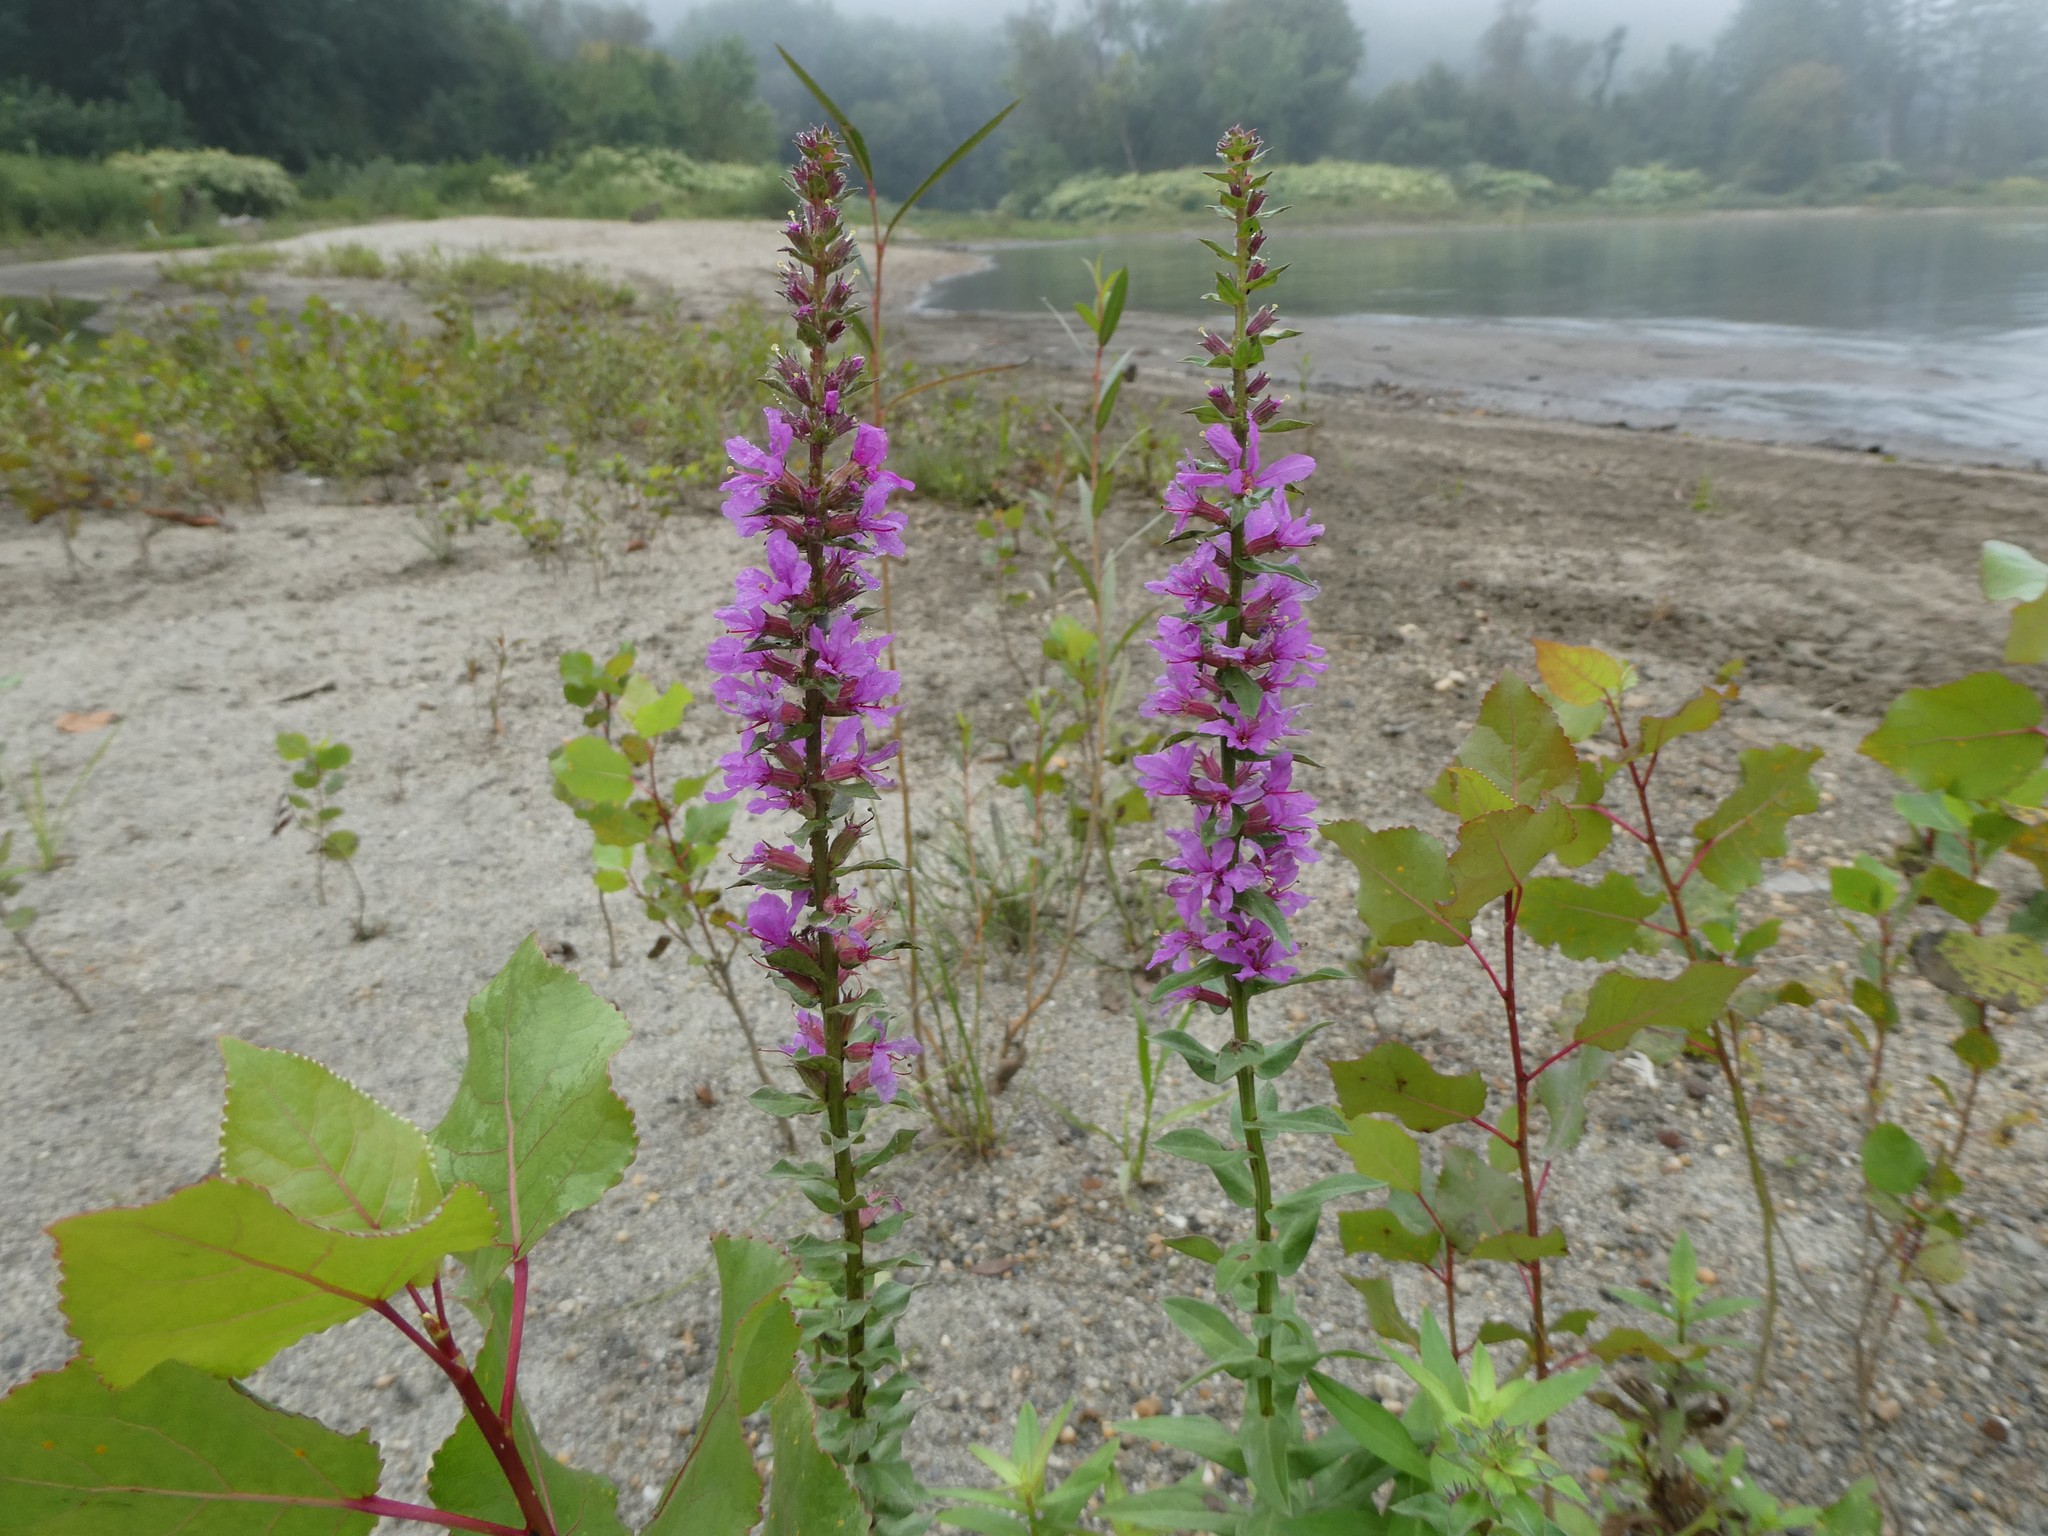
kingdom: Plantae
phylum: Tracheophyta
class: Magnoliopsida
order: Myrtales
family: Lythraceae
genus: Lythrum
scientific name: Lythrum salicaria
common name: Purple loosestrife
